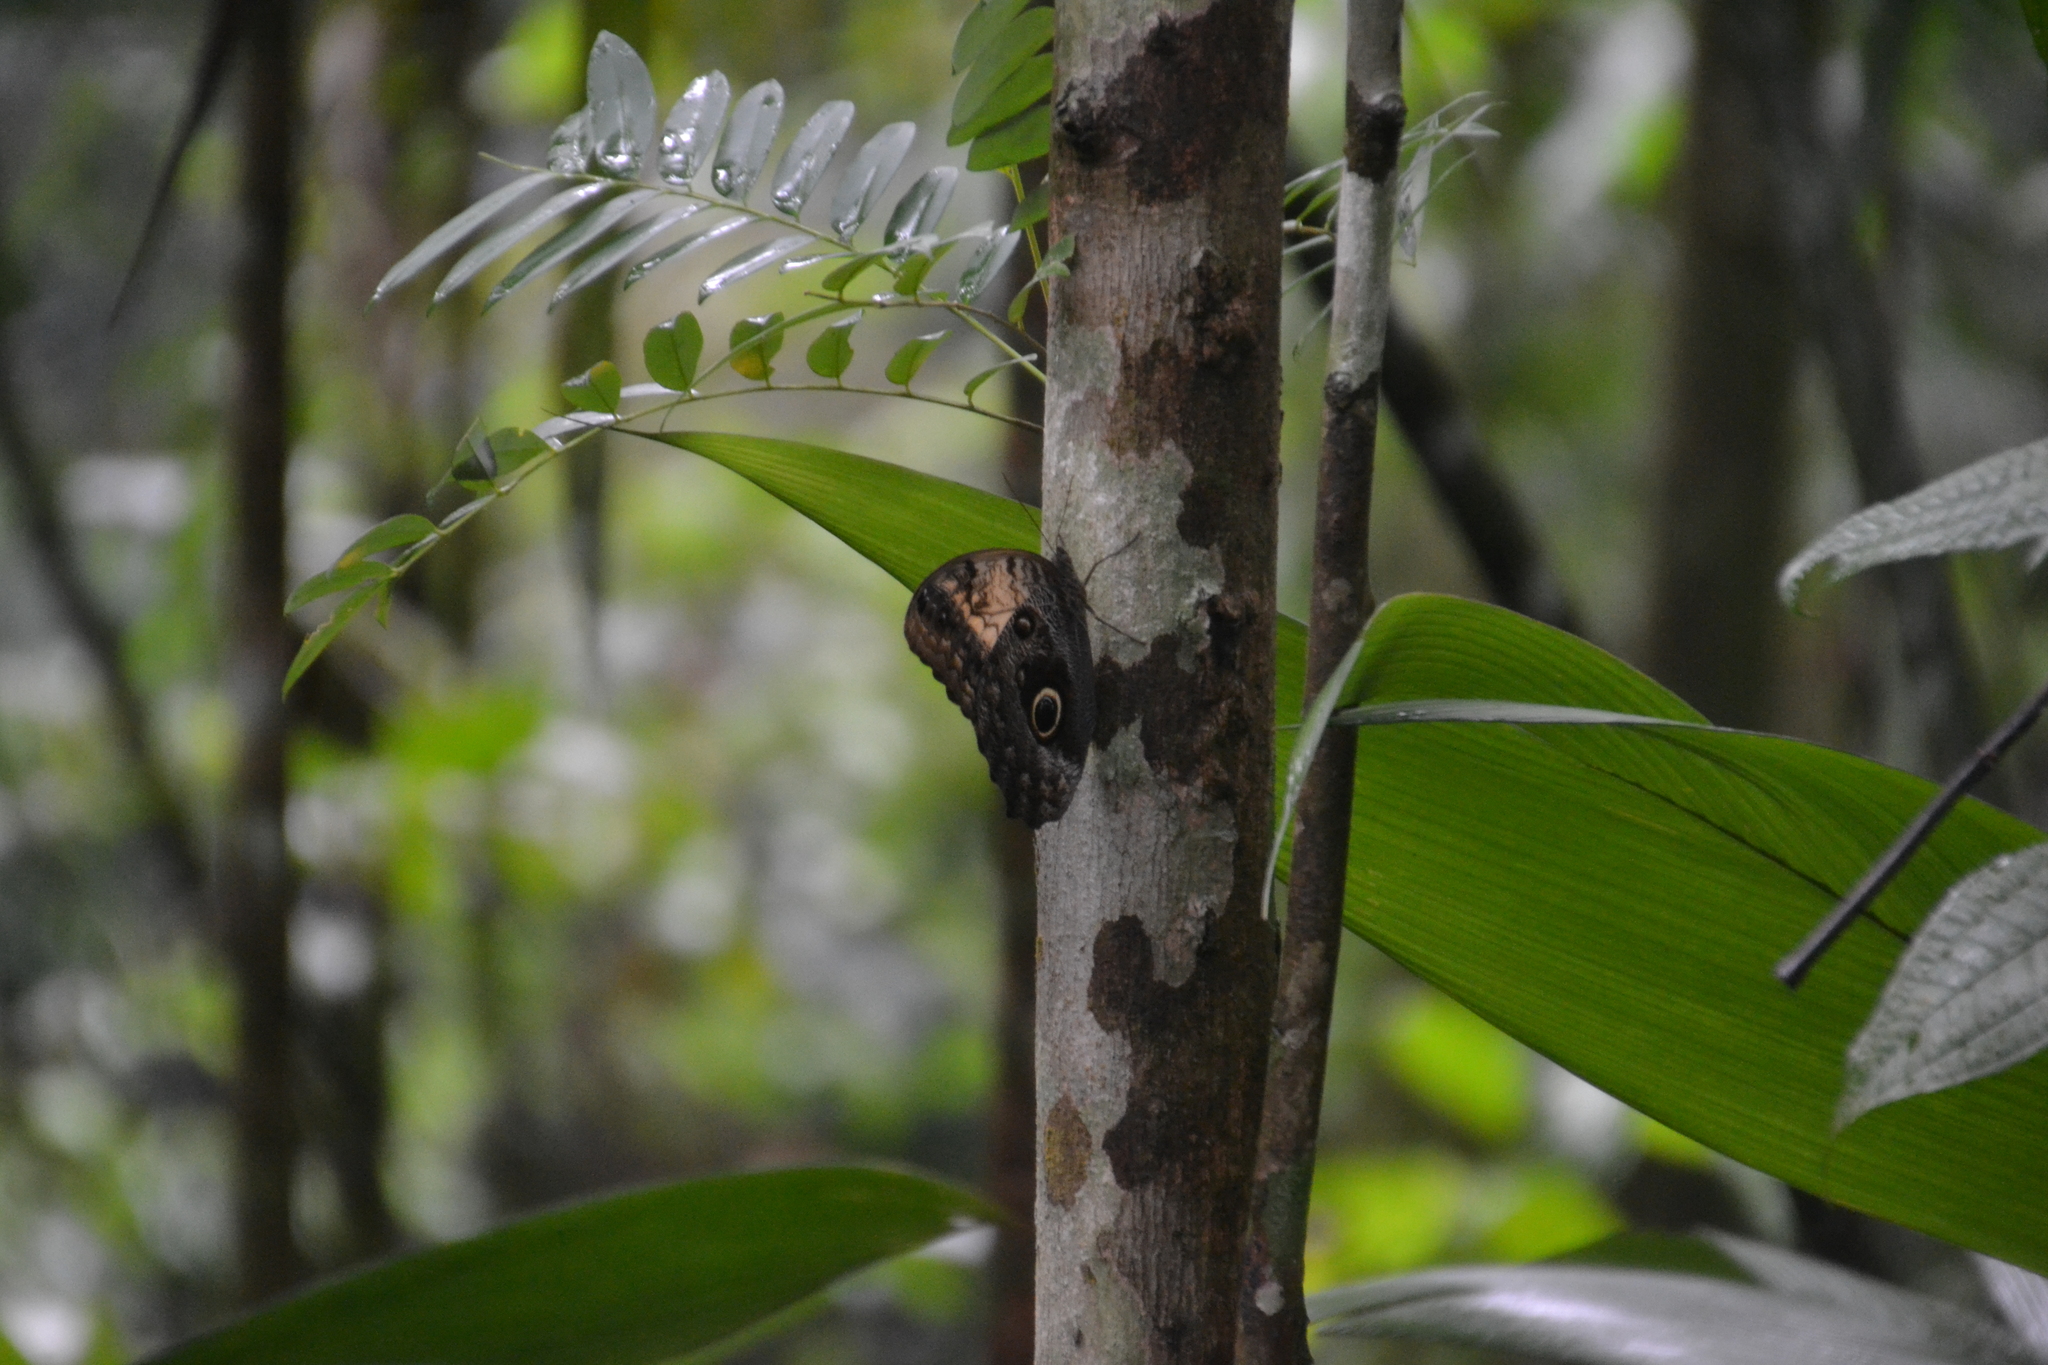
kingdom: Animalia
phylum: Arthropoda
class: Insecta
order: Lepidoptera
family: Nymphalidae
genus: Caligo
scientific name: Caligo telamonius
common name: Pale owl-butterfly
